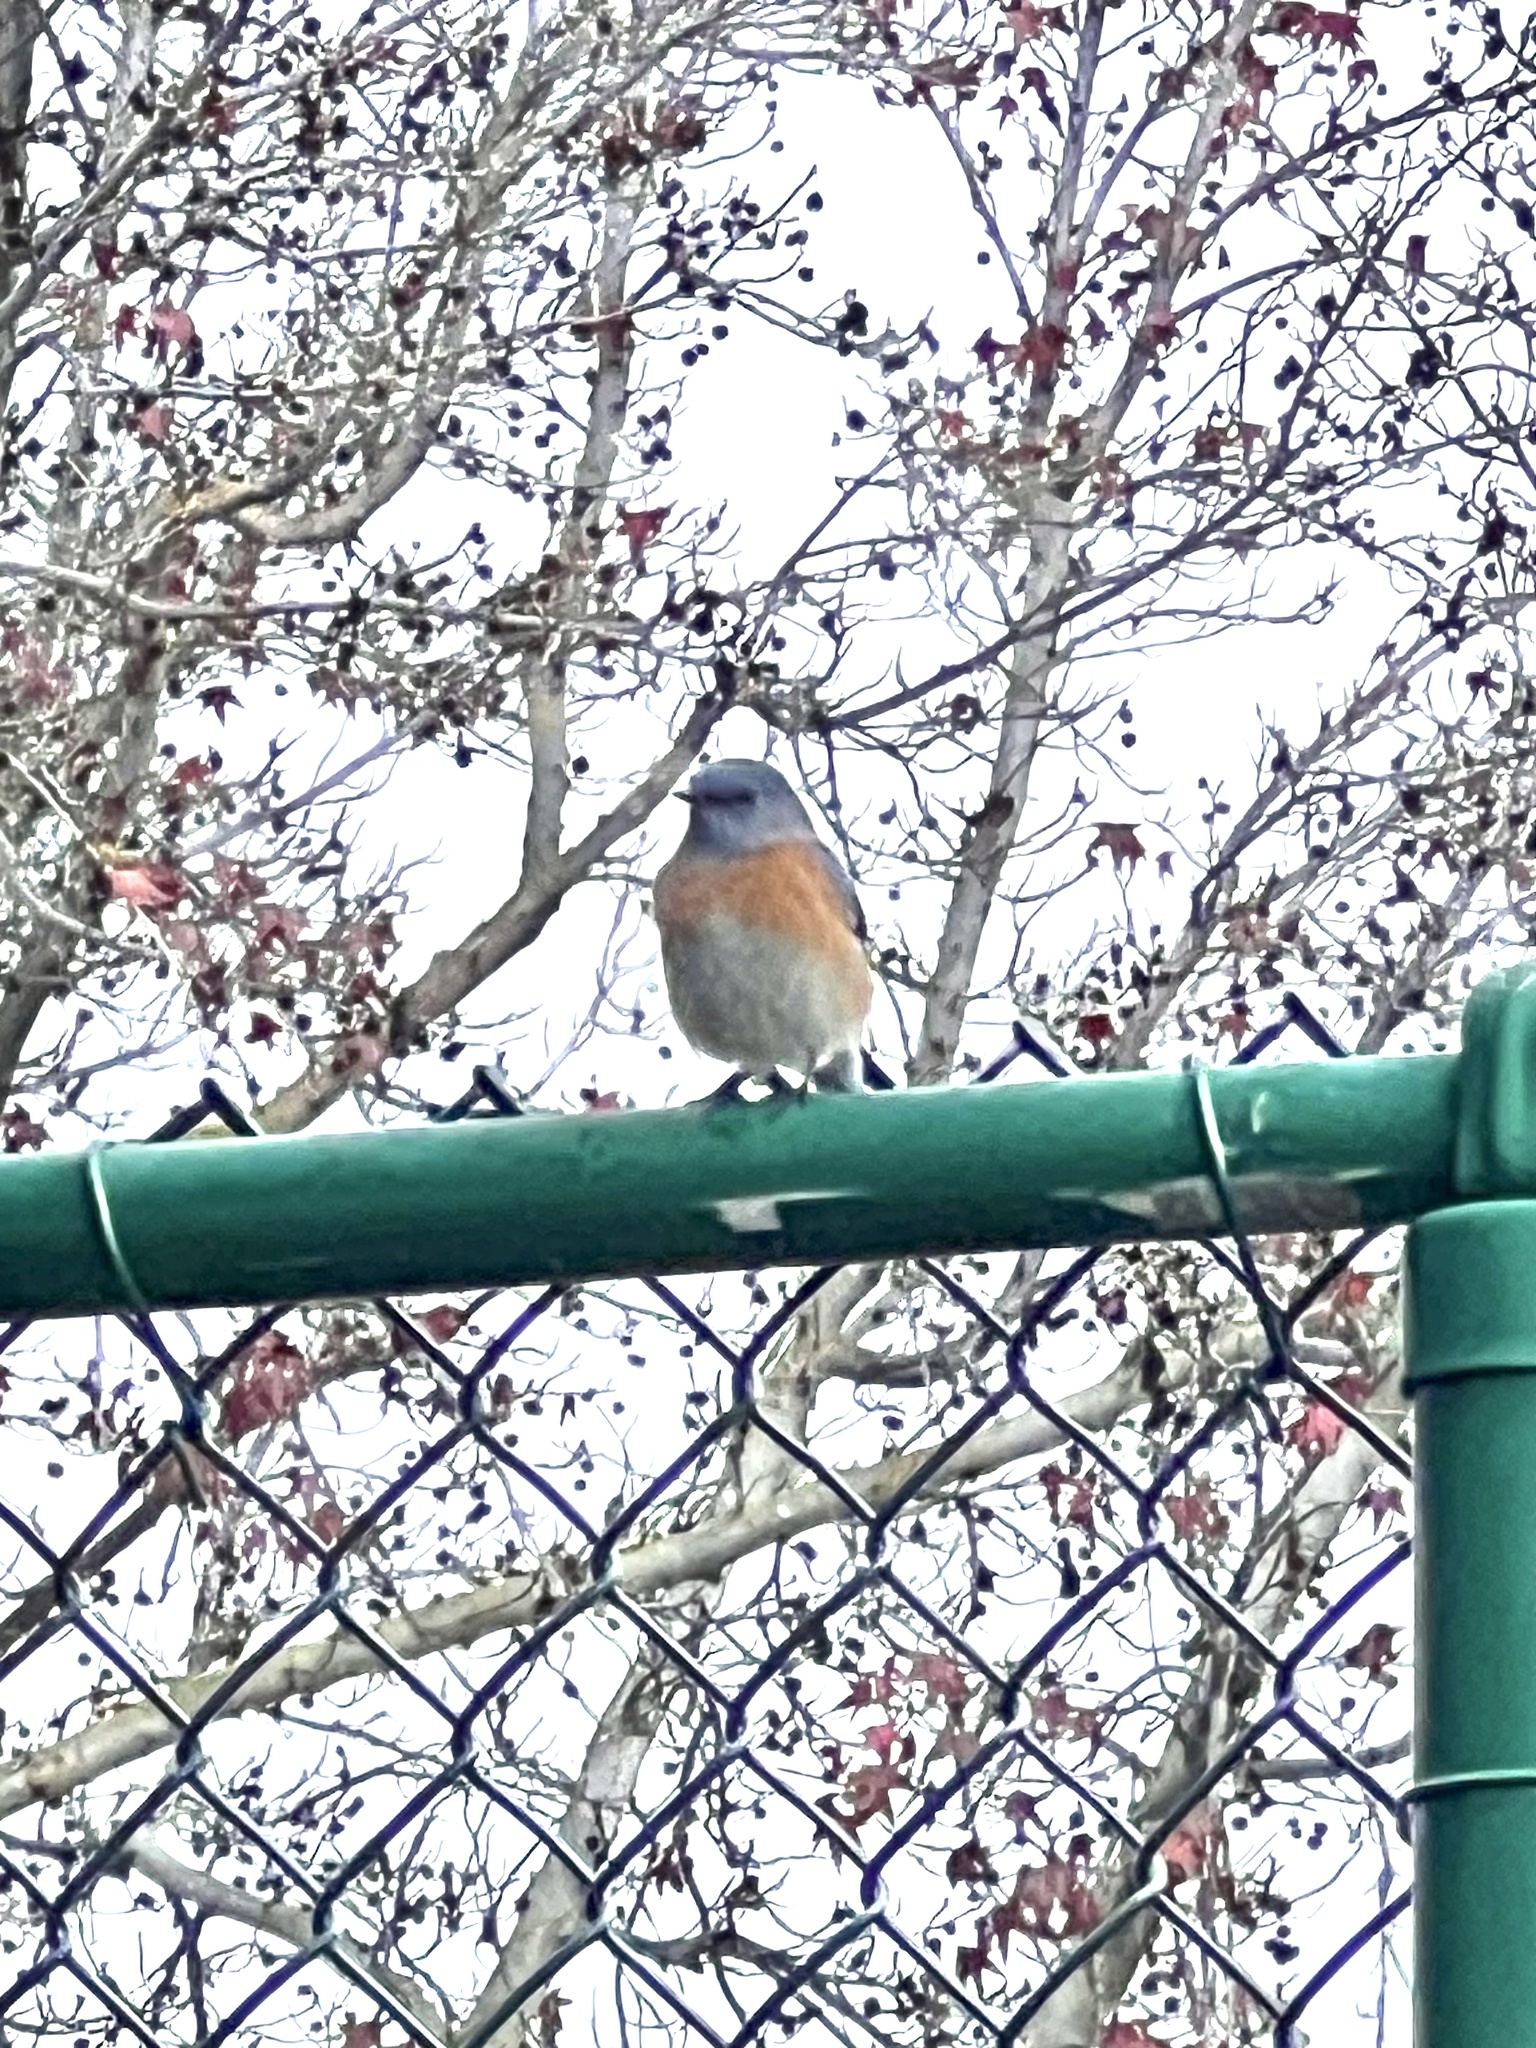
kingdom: Animalia
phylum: Chordata
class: Aves
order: Passeriformes
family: Turdidae
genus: Sialia
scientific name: Sialia mexicana
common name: Western bluebird
